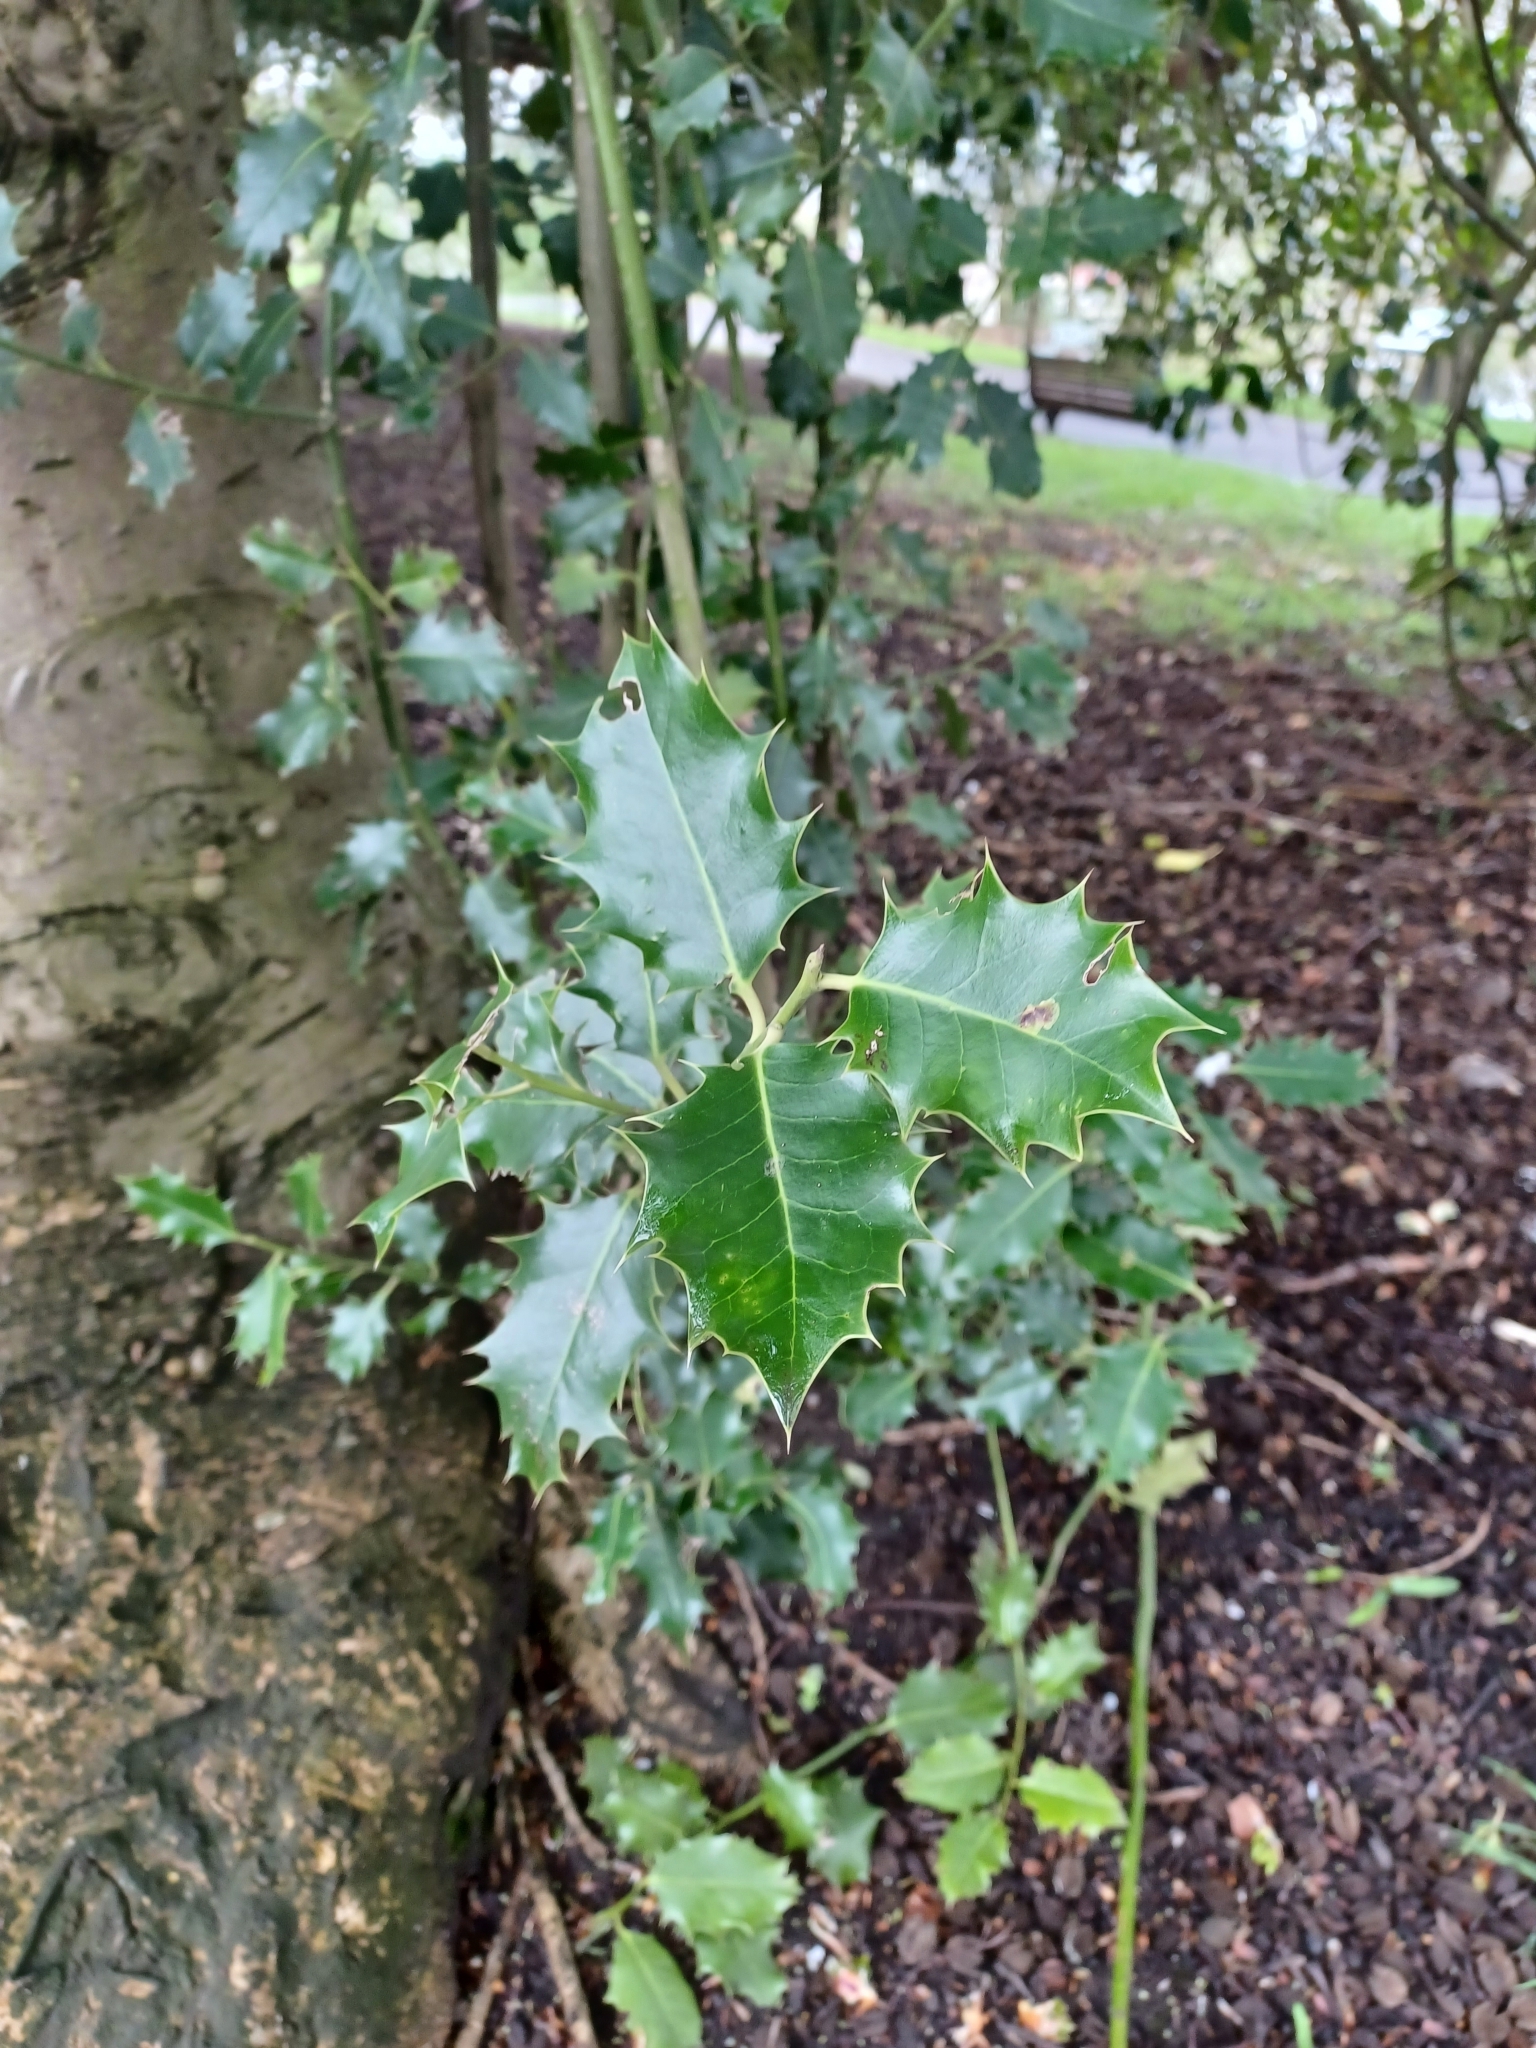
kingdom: Plantae
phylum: Tracheophyta
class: Magnoliopsida
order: Aquifoliales
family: Aquifoliaceae
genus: Ilex
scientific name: Ilex aquifolium
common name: English holly
